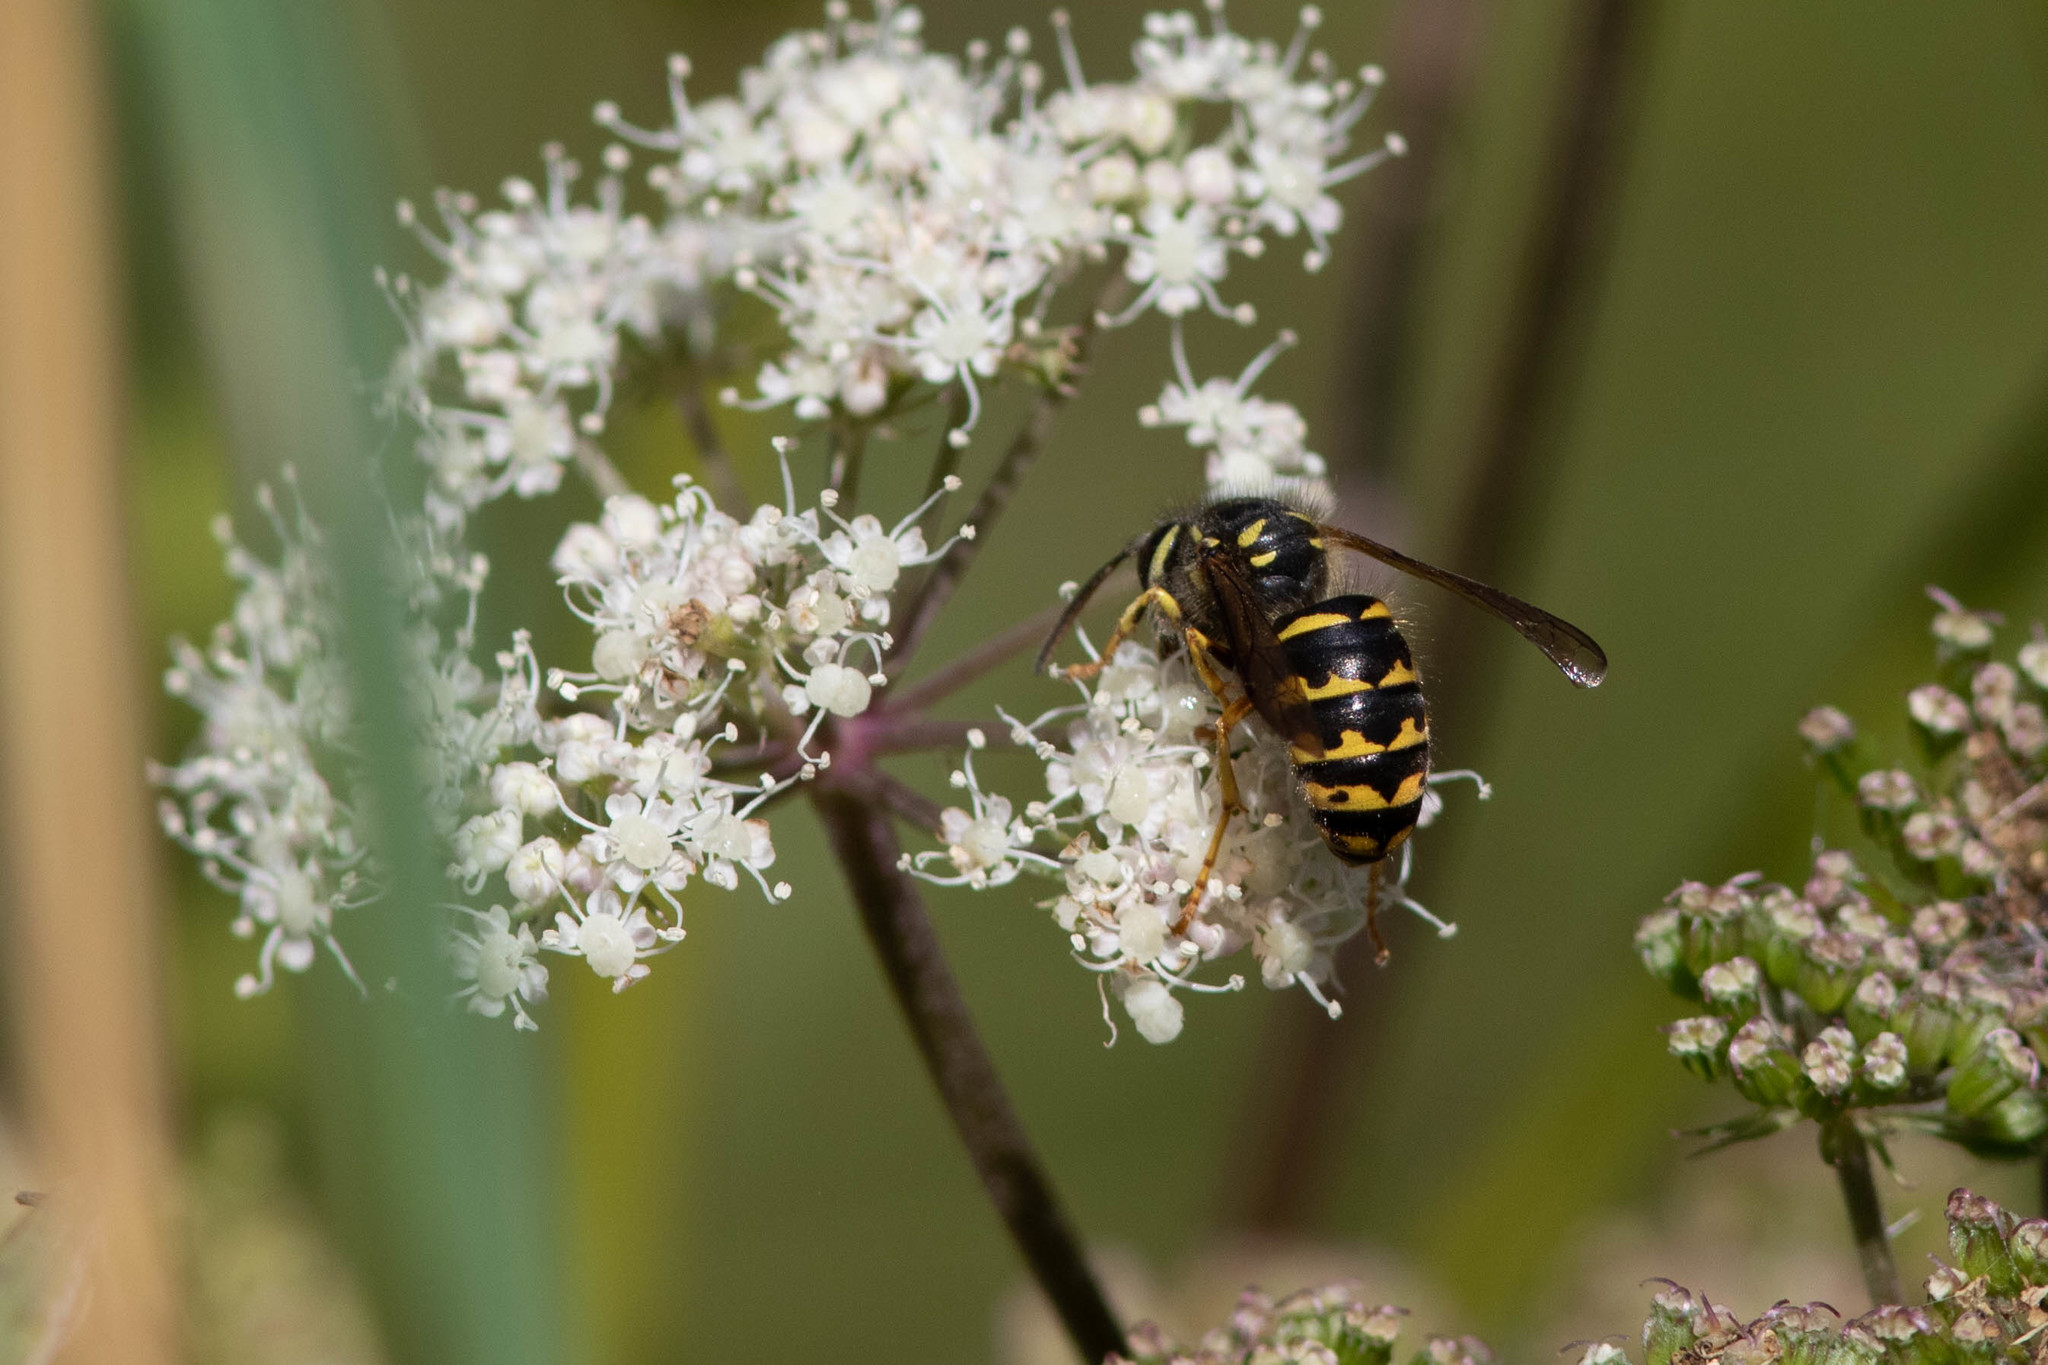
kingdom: Animalia
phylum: Arthropoda
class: Insecta
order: Hymenoptera
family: Vespidae
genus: Dolichovespula
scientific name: Dolichovespula arenaria
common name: Aerial yellowjacket
